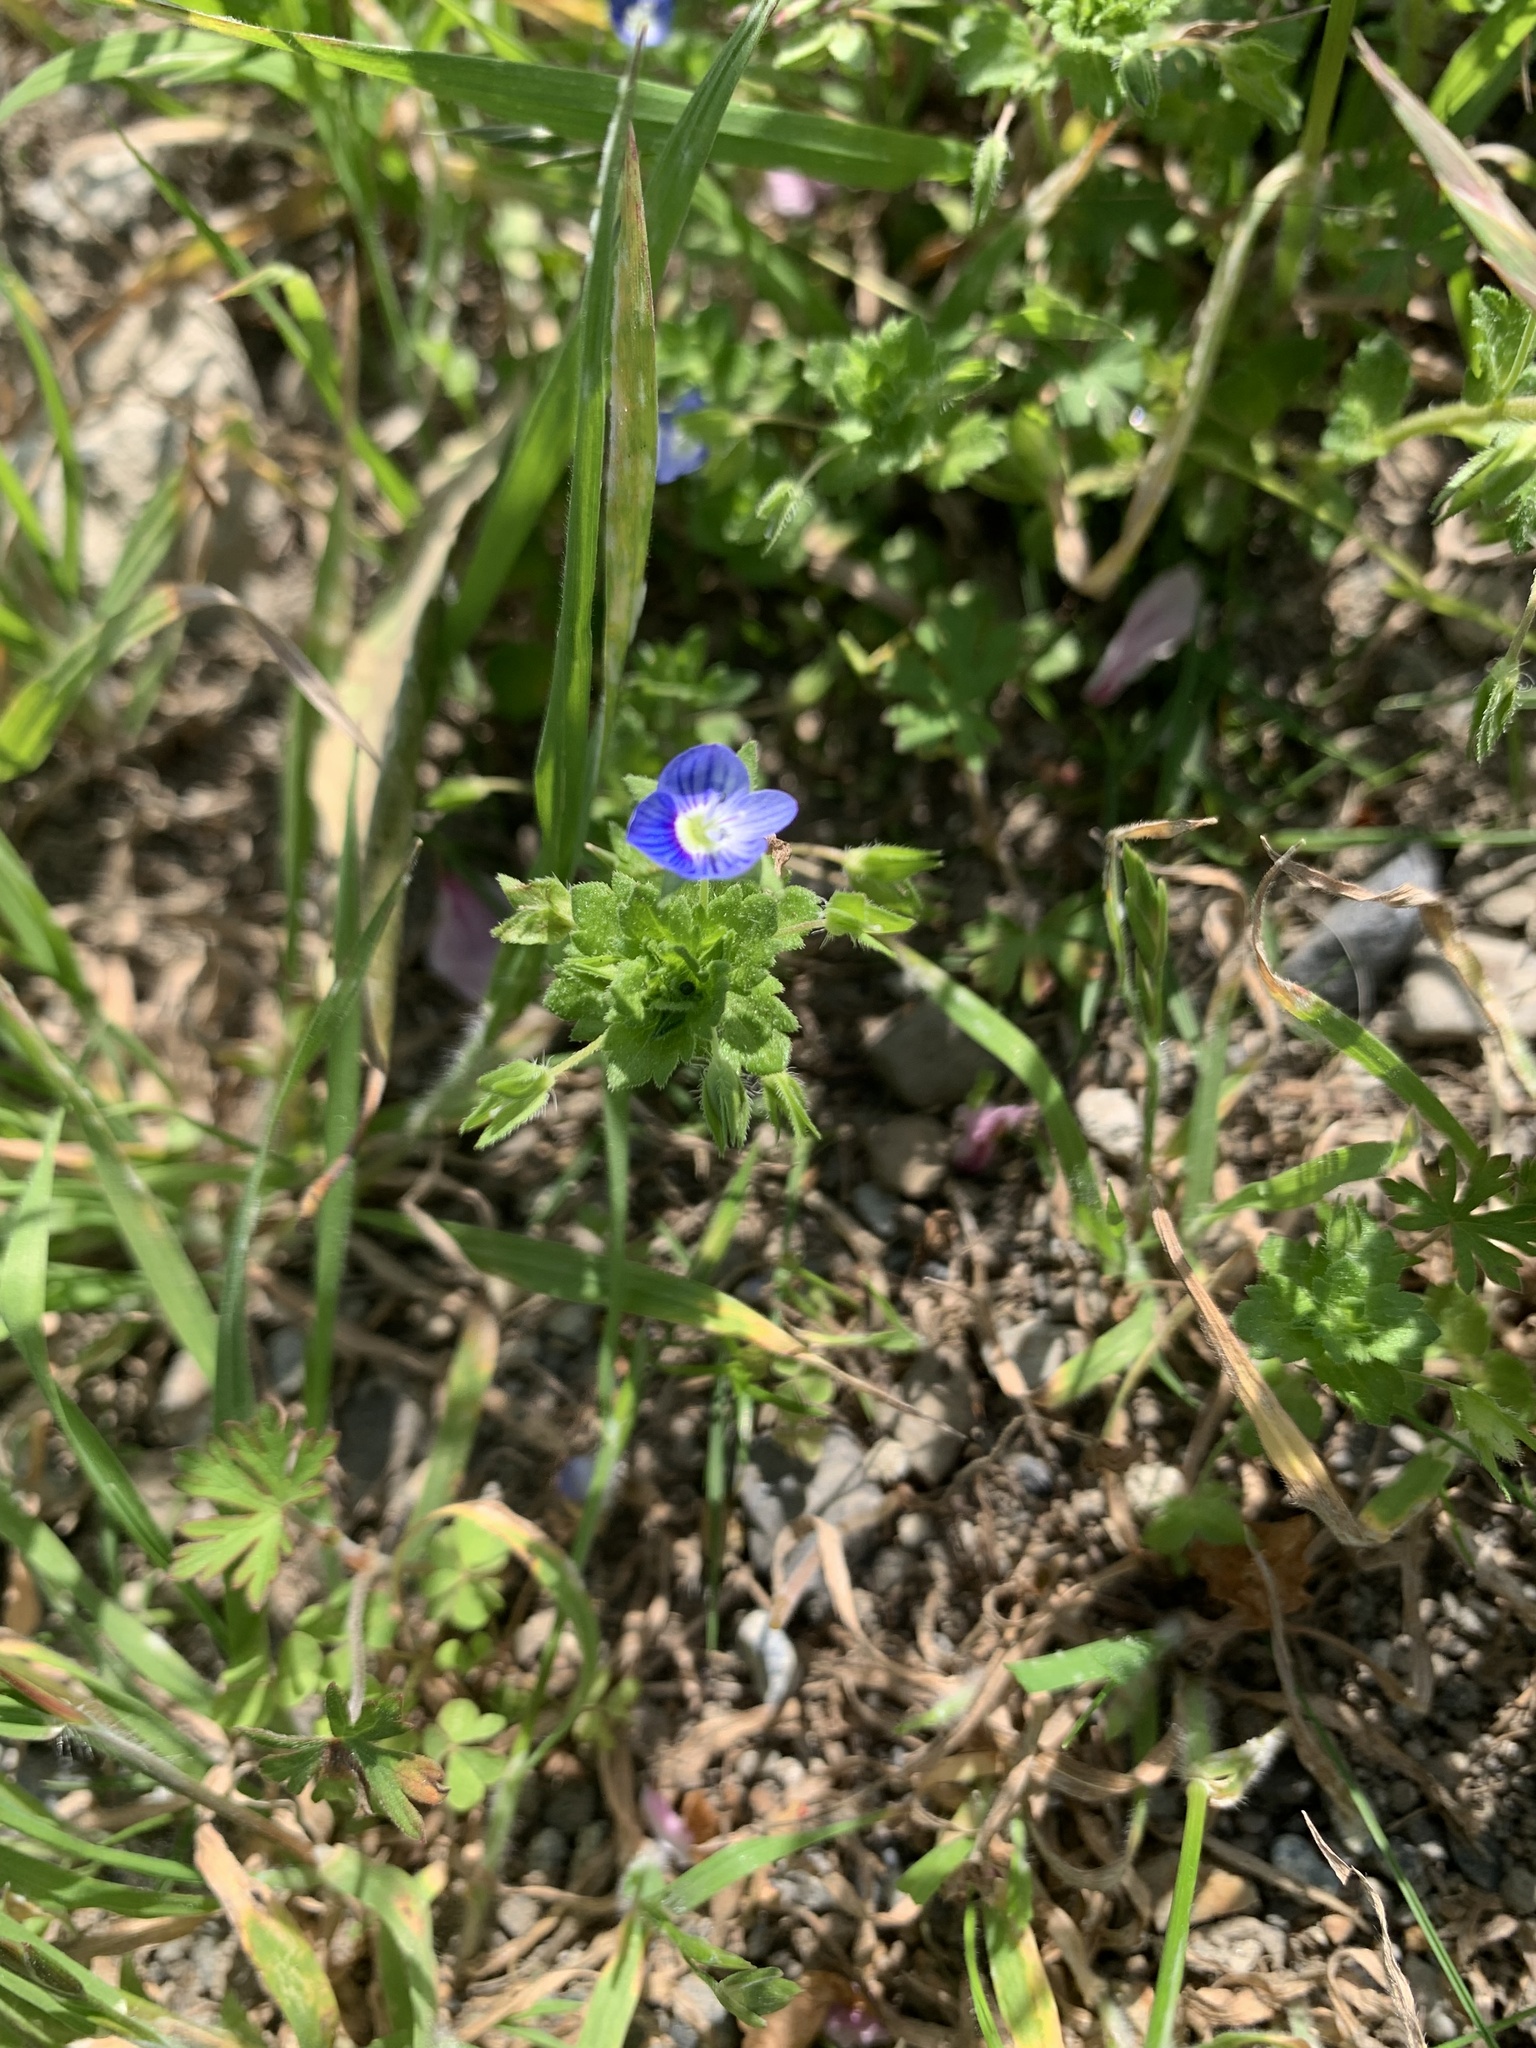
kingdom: Plantae
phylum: Tracheophyta
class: Magnoliopsida
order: Lamiales
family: Plantaginaceae
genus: Veronica
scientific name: Veronica persica
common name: Common field-speedwell
